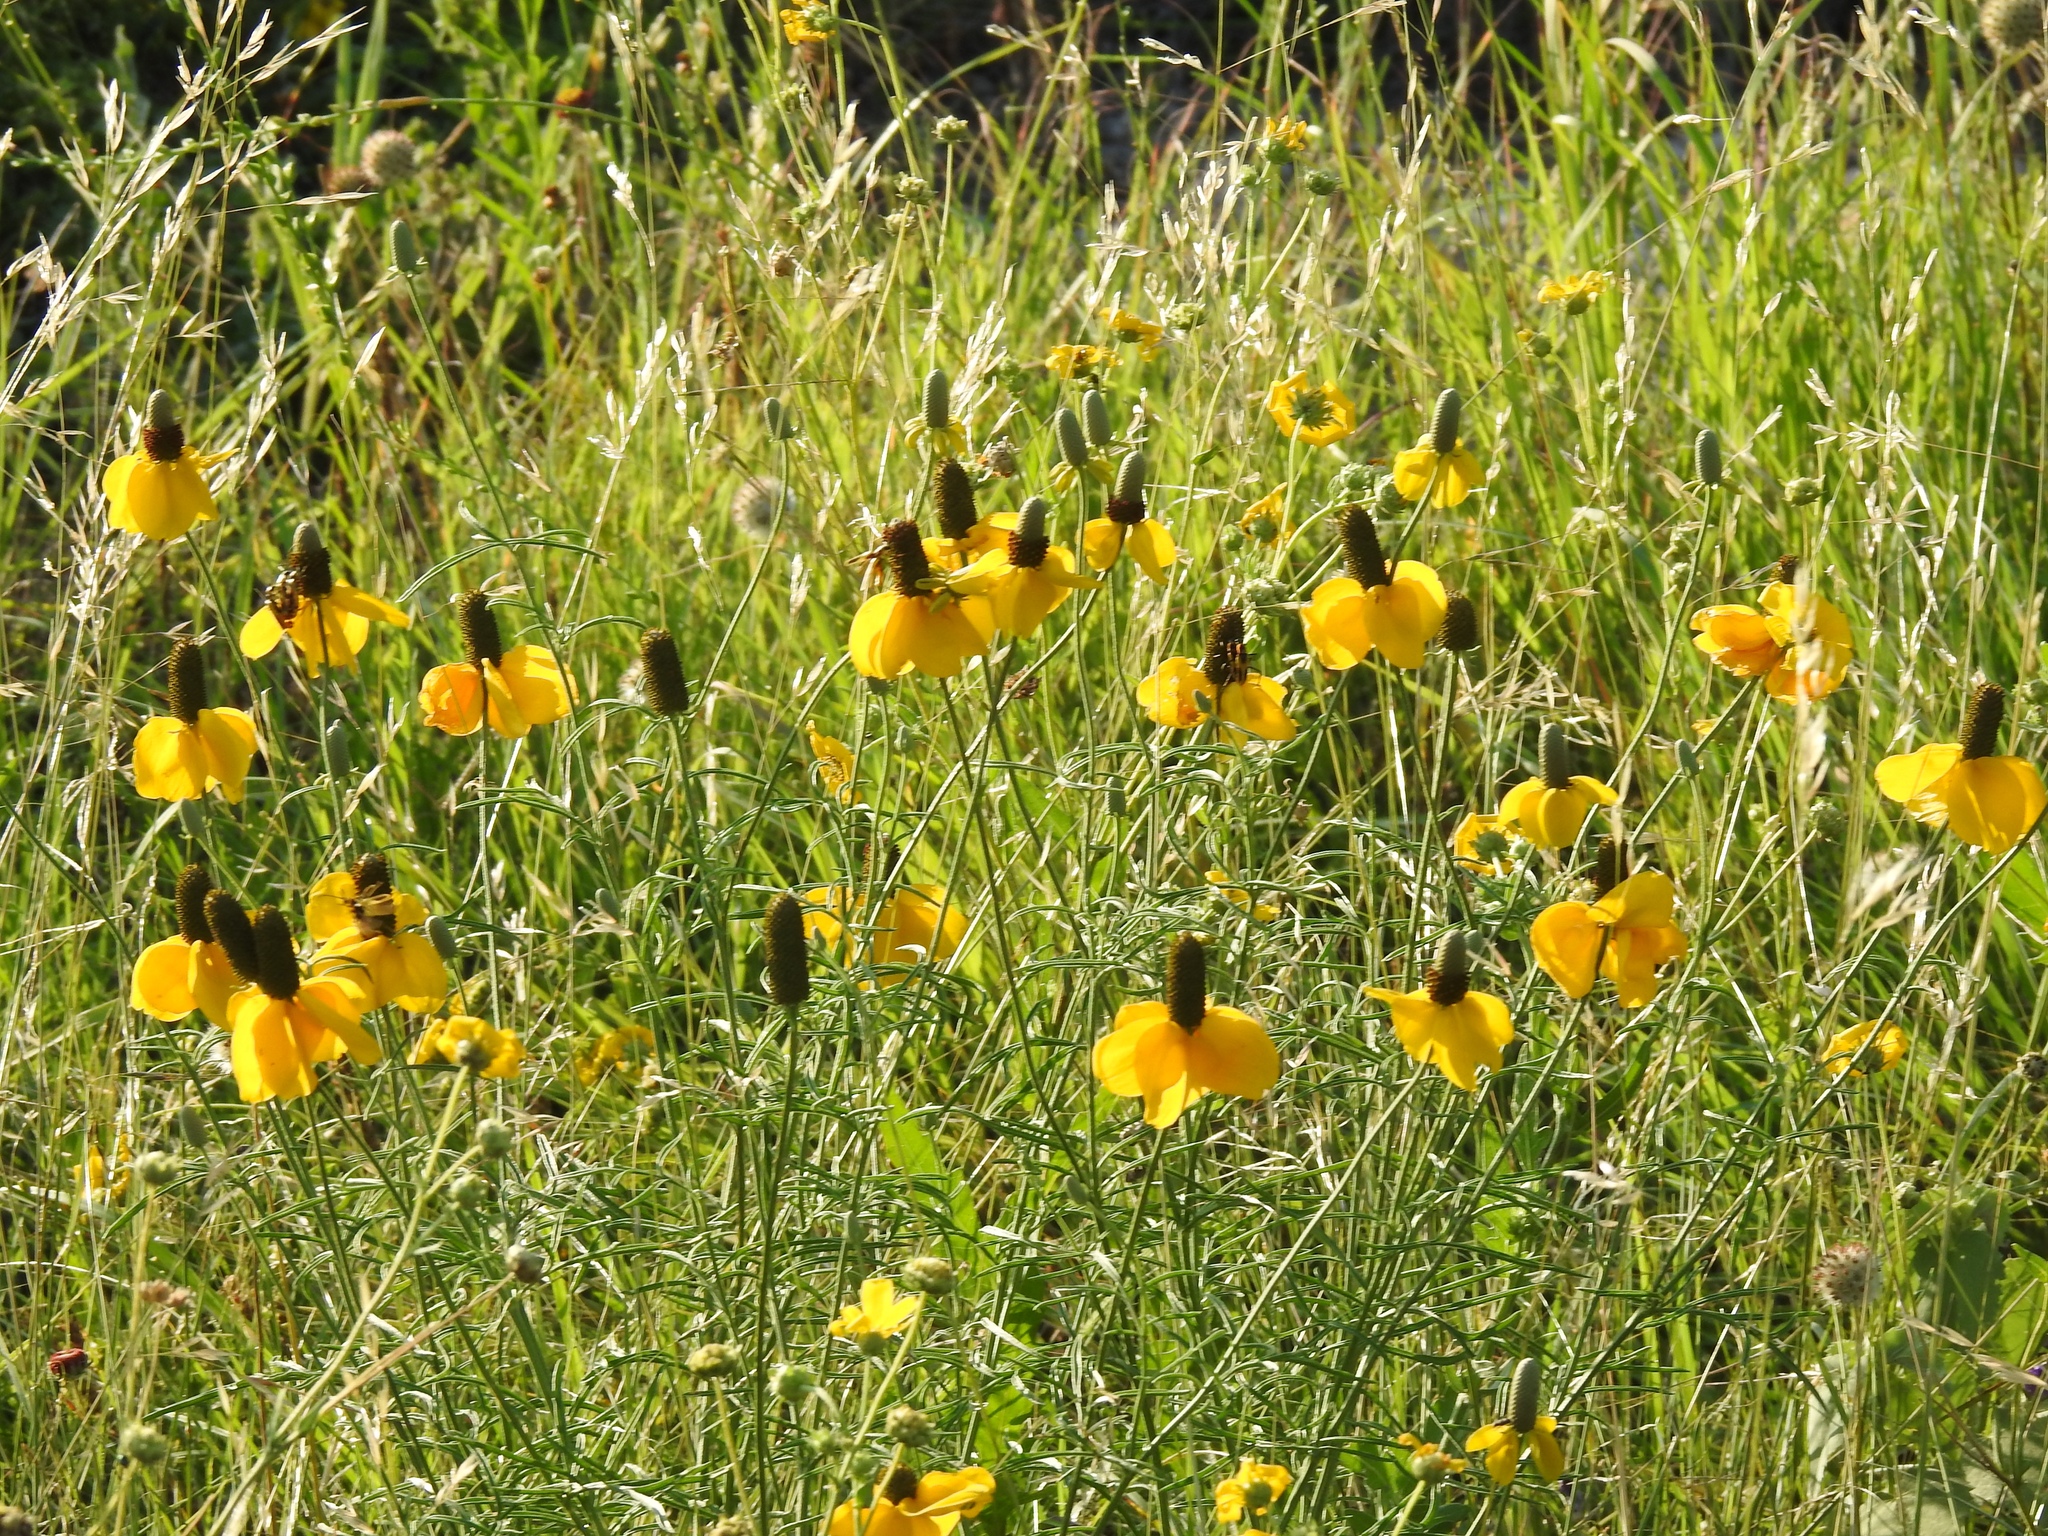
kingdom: Plantae
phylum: Tracheophyta
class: Magnoliopsida
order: Asterales
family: Asteraceae
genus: Ratibida
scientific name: Ratibida columnifera
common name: Prairie coneflower
